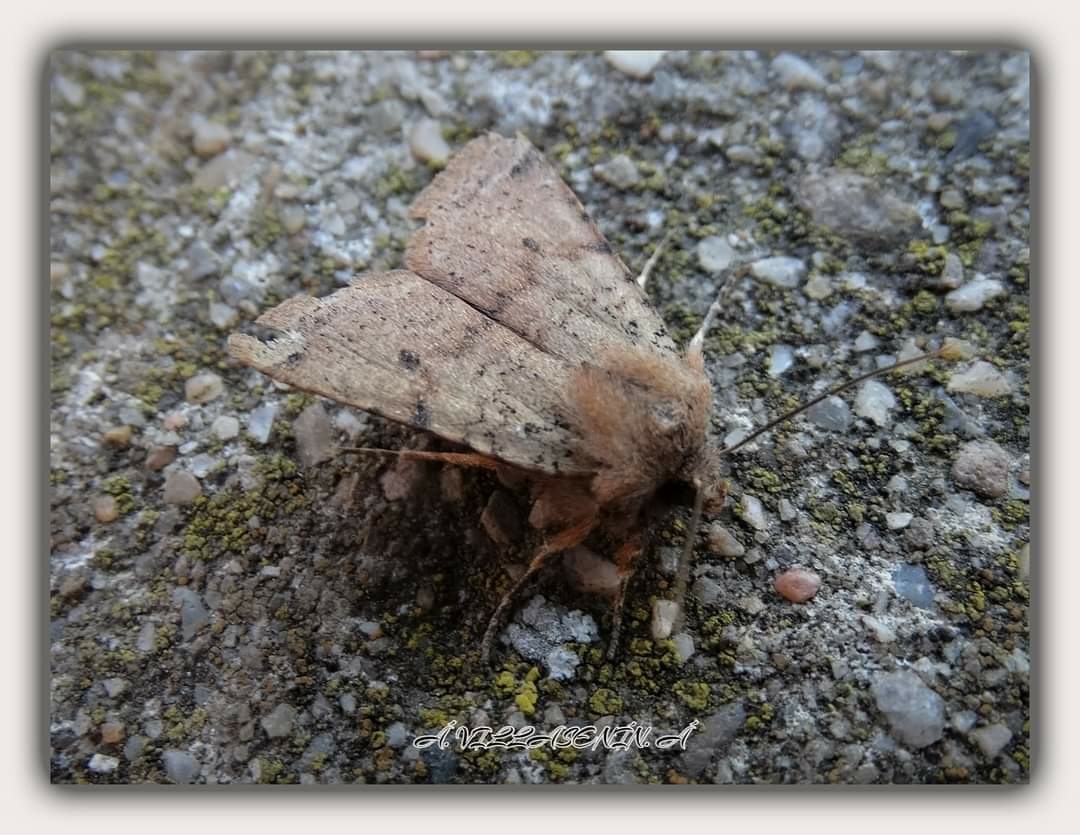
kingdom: Animalia
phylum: Arthropoda
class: Insecta
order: Lepidoptera
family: Noctuidae
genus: Agrochola
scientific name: Agrochola ruticilla
